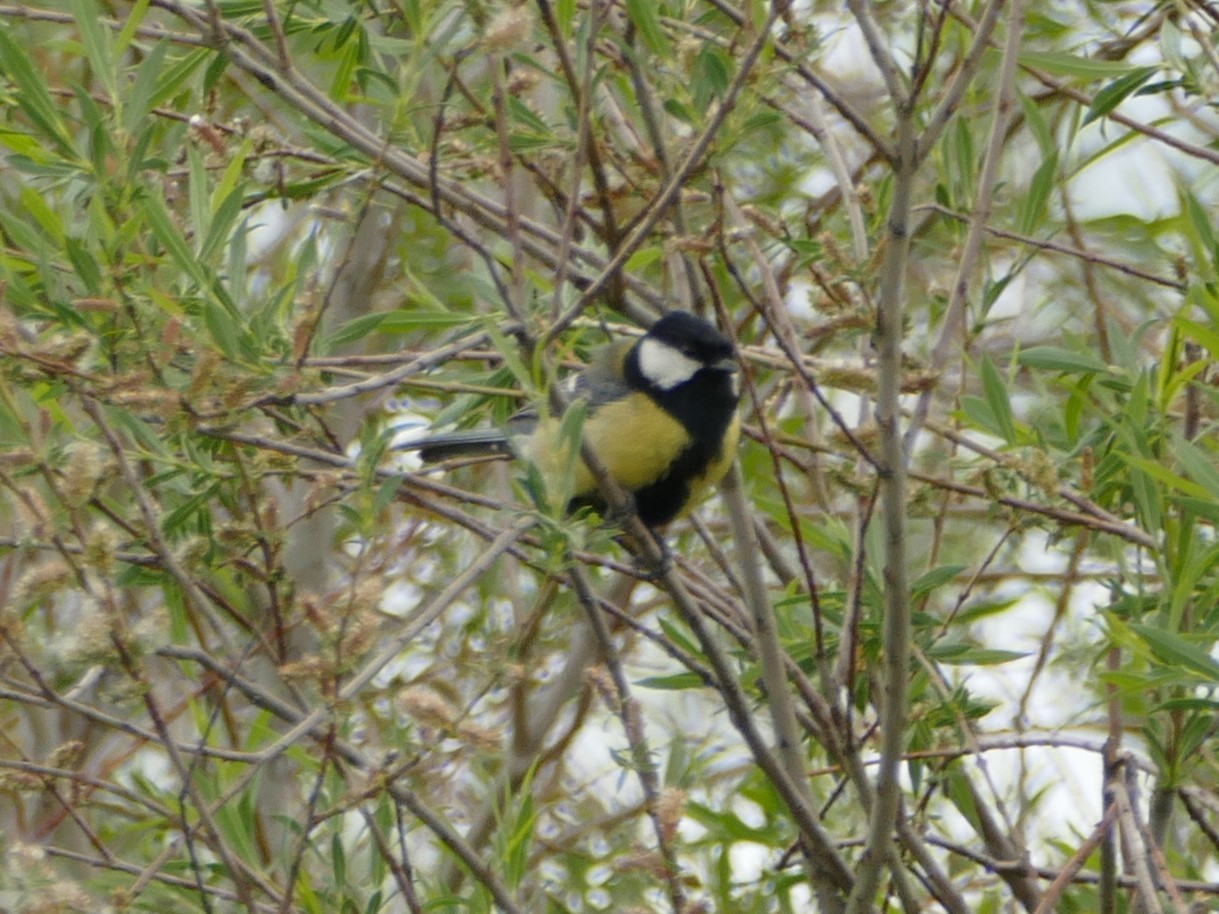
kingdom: Animalia
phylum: Chordata
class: Aves
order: Passeriformes
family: Paridae
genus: Parus
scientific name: Parus major
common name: Great tit
